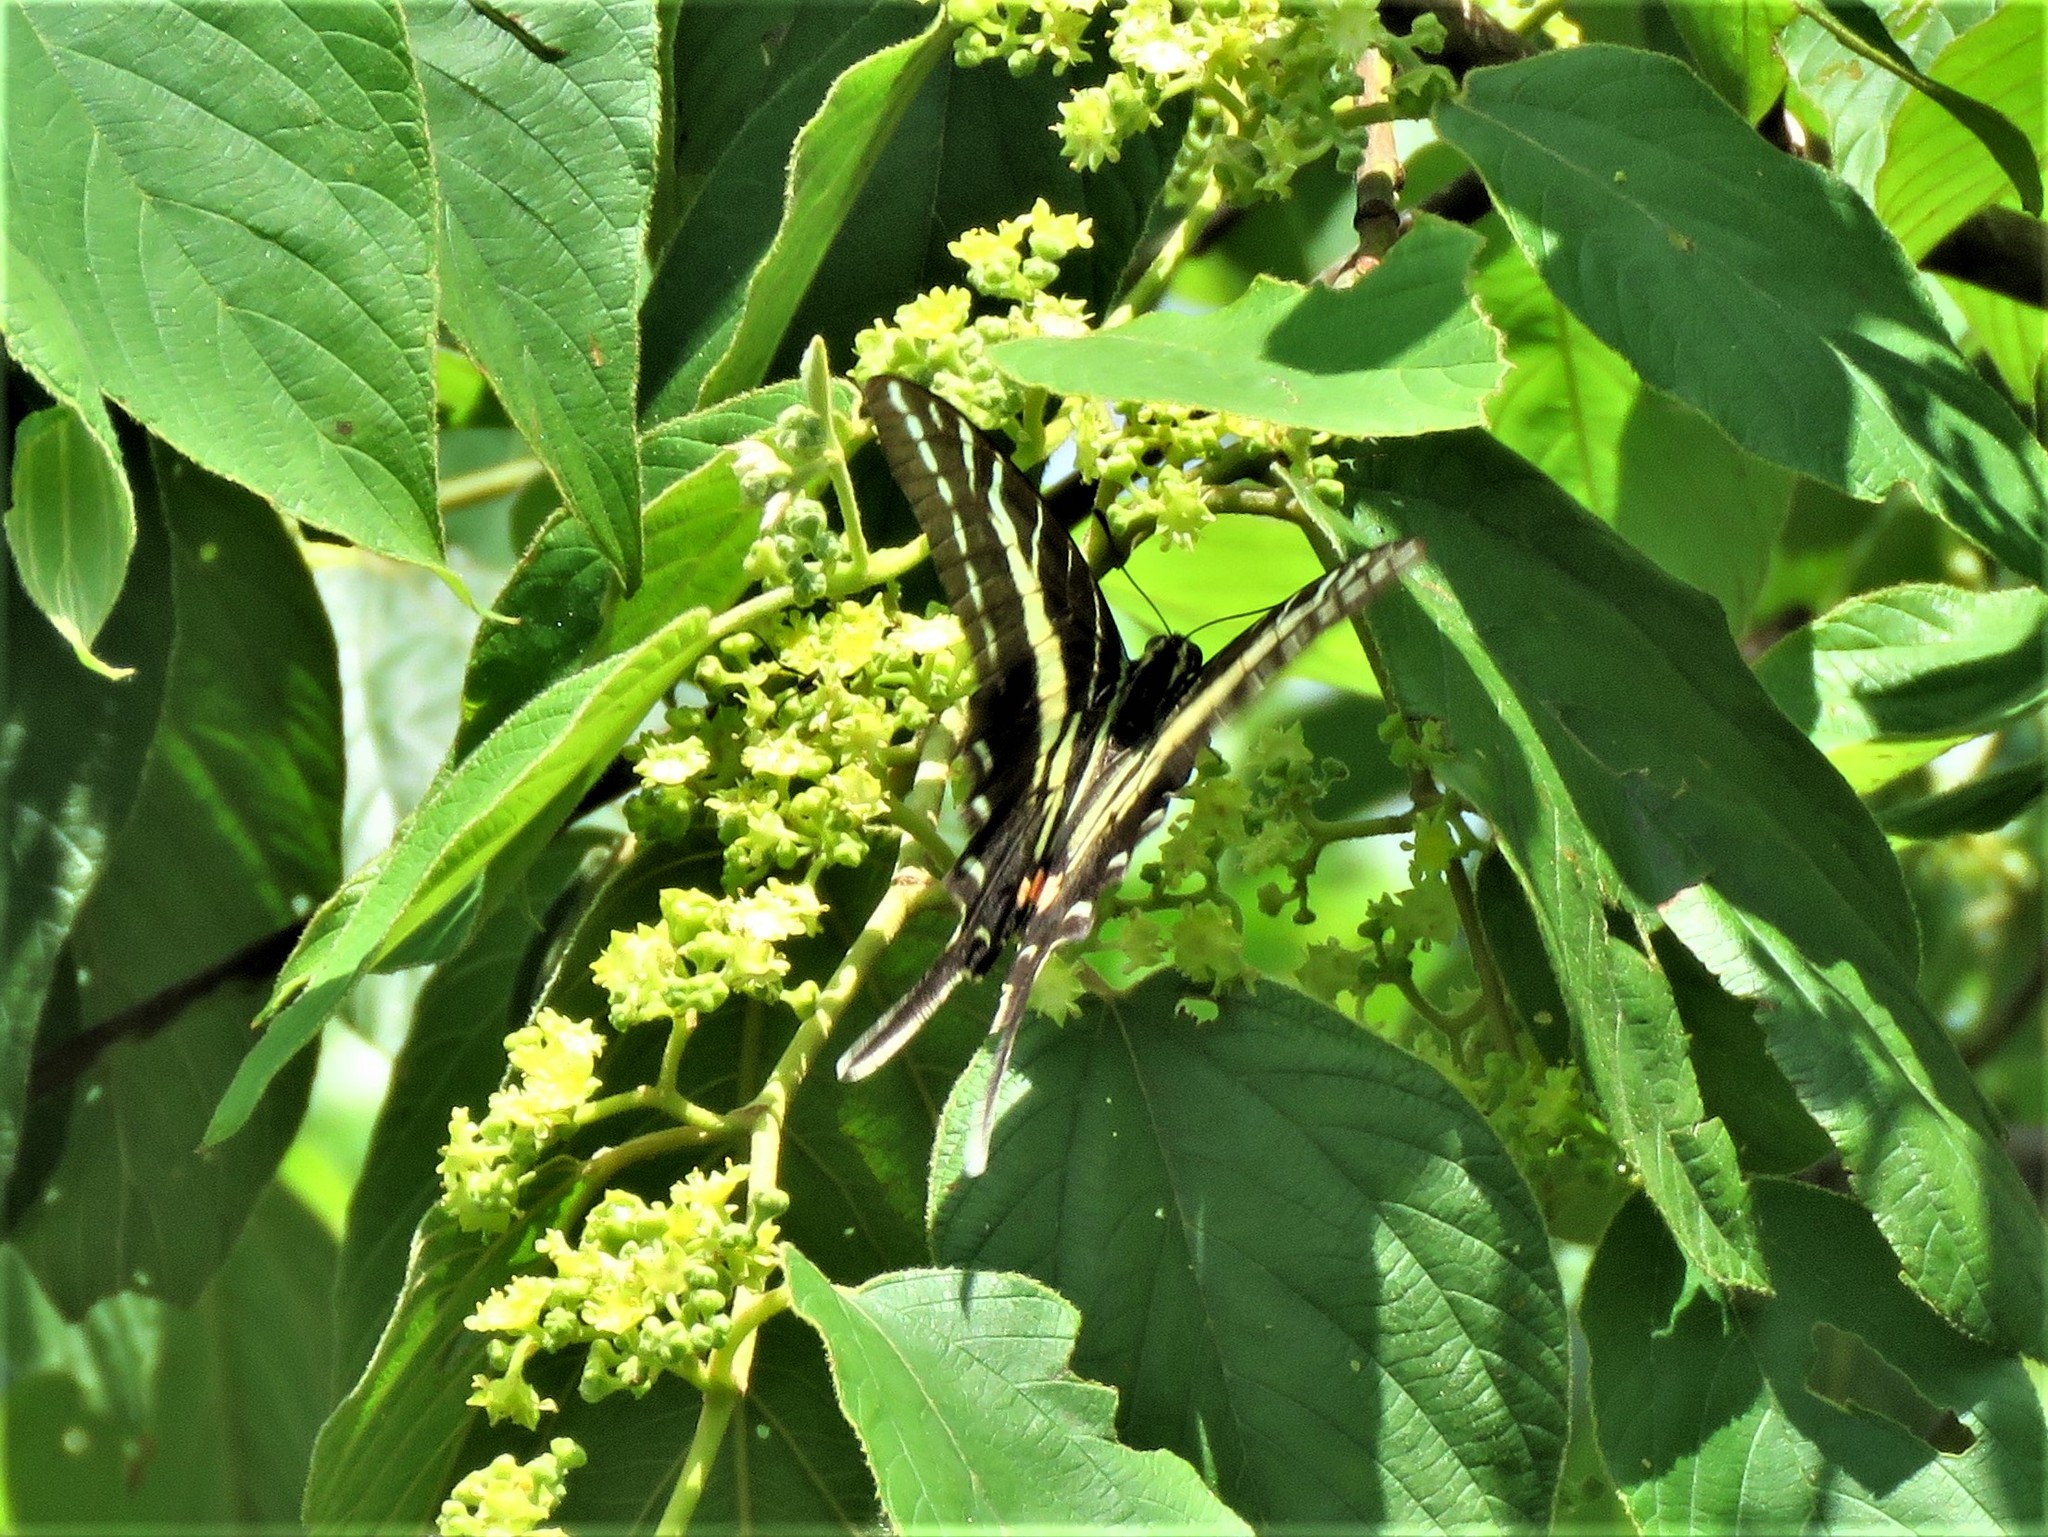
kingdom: Animalia
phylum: Arthropoda
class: Insecta
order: Lepidoptera
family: Papilionidae
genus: Protographium
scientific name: Protographium philolaus
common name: Dark zebra swallowtail
